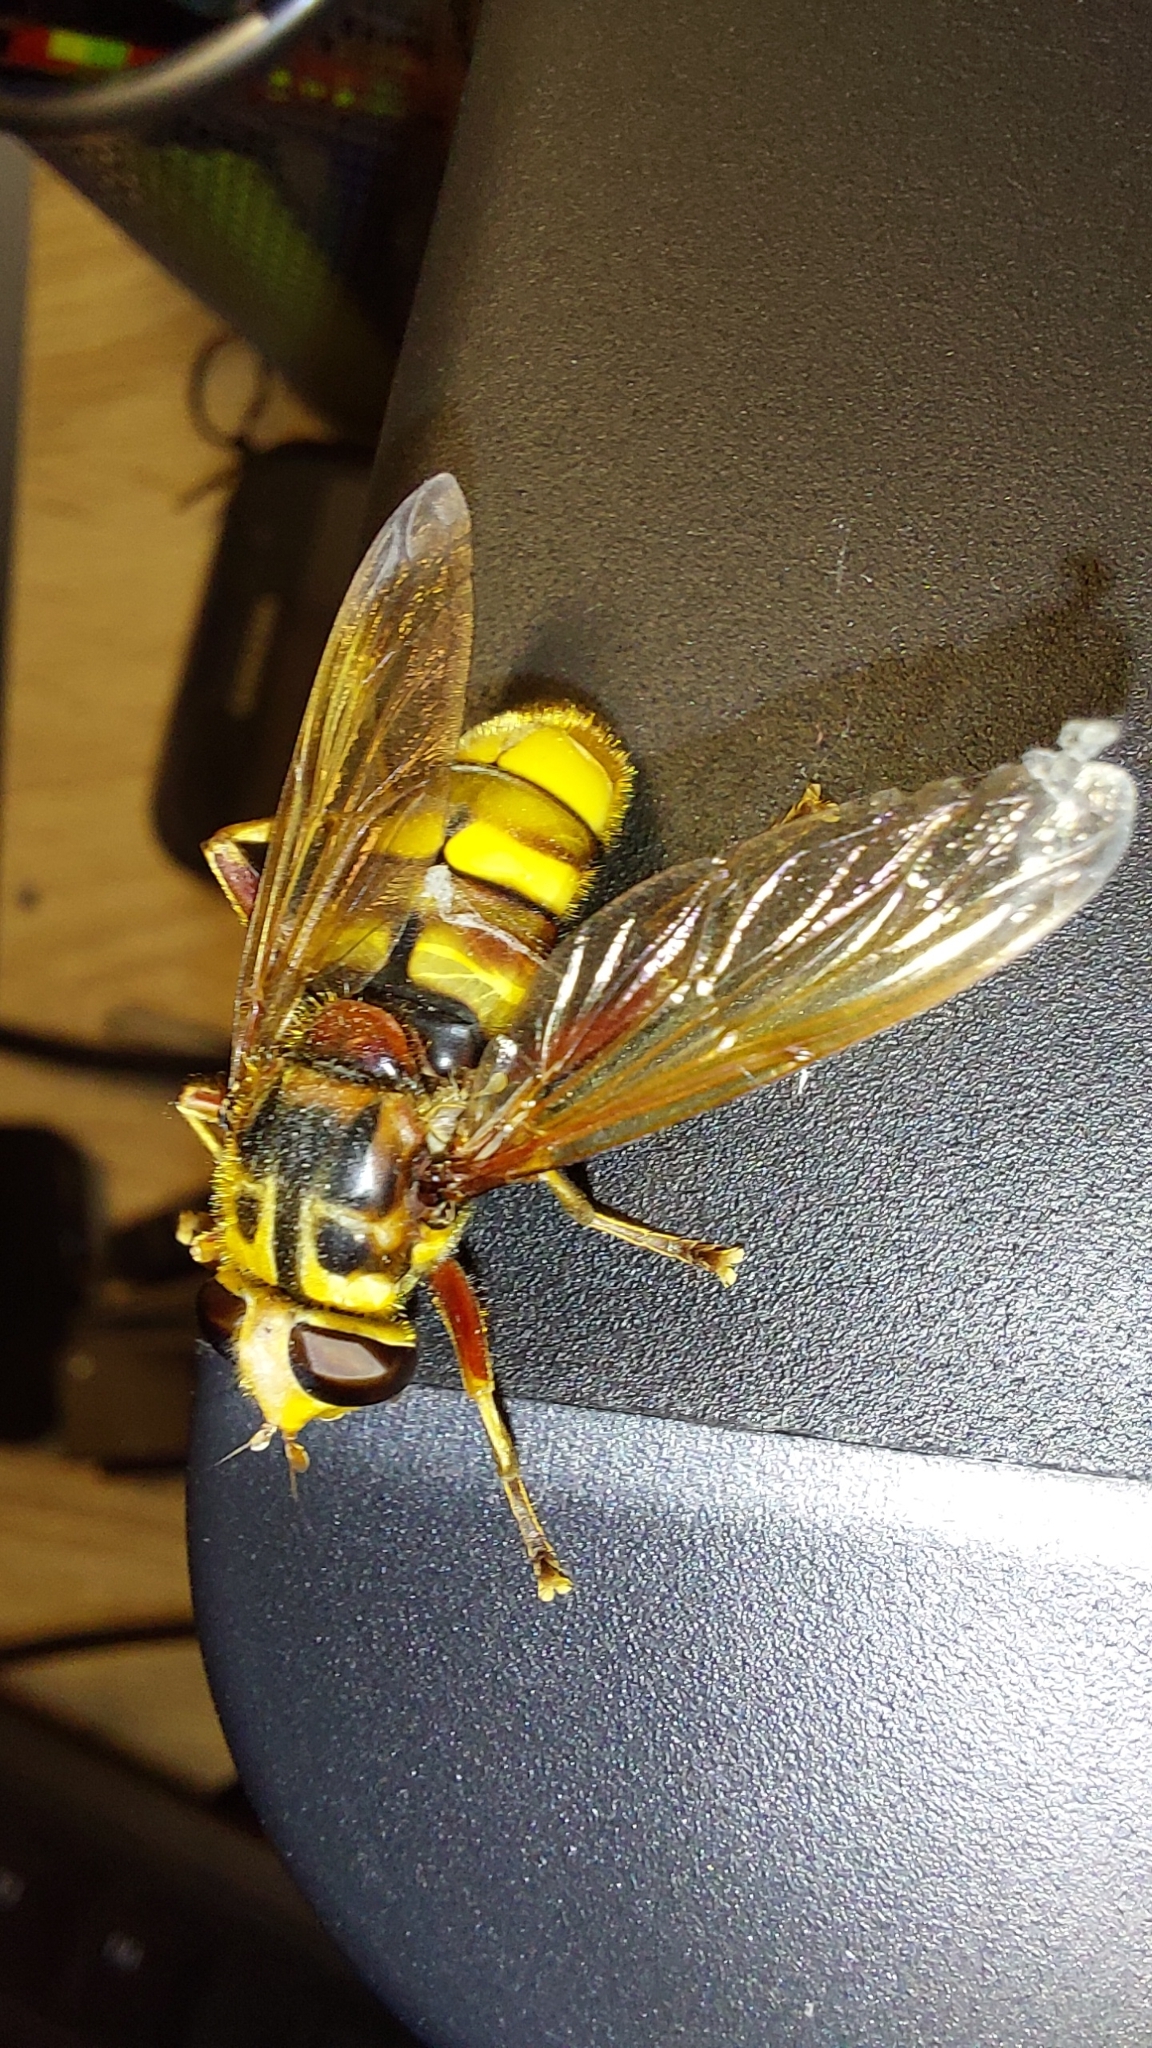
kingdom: Animalia
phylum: Arthropoda
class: Insecta
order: Diptera
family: Syrphidae
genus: Milesia
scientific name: Milesia crabroniformis
